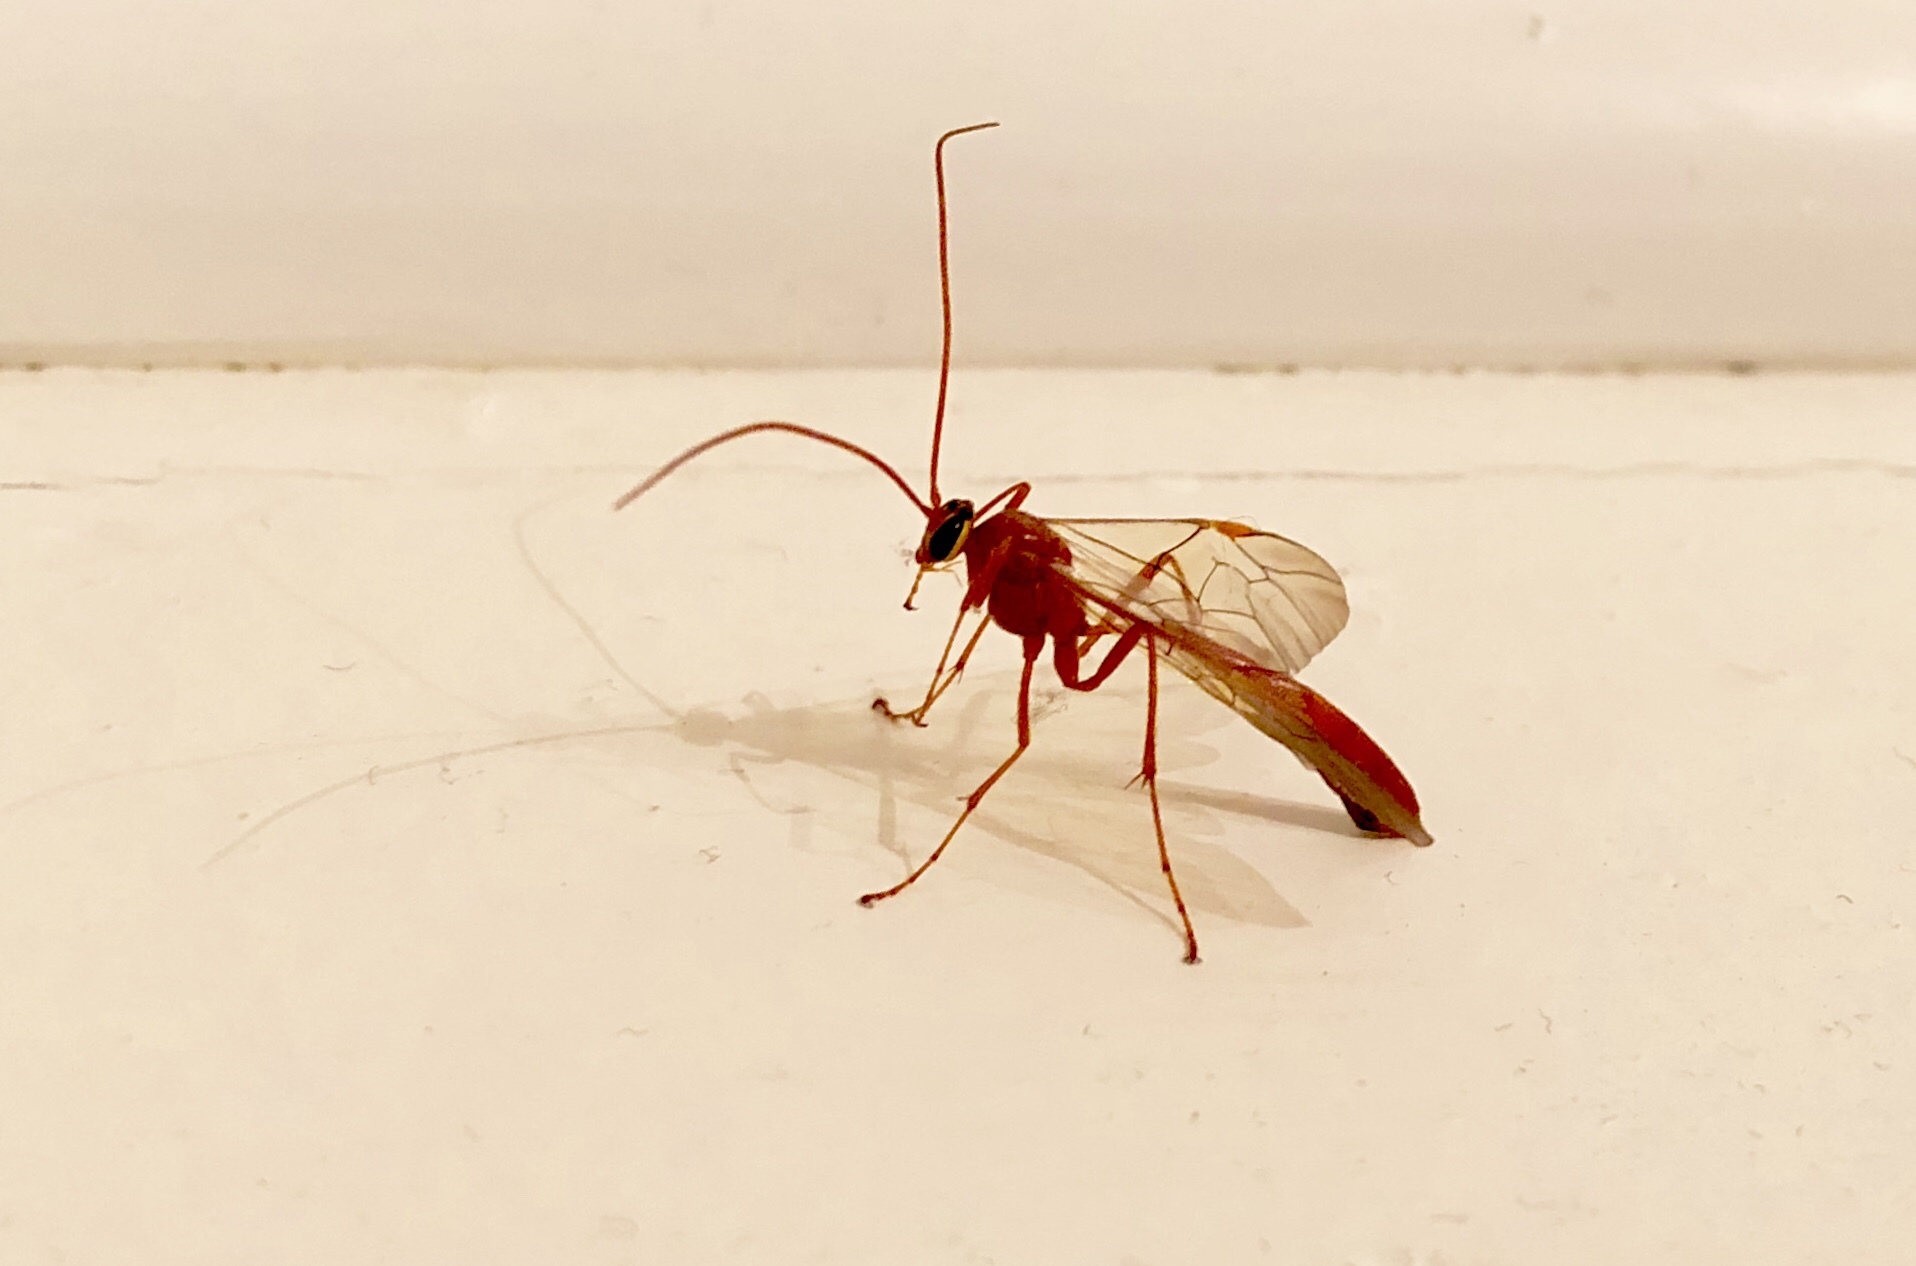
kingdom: Animalia
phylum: Arthropoda
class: Insecta
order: Hymenoptera
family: Ichneumonidae
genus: Ophion
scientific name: Ophion
